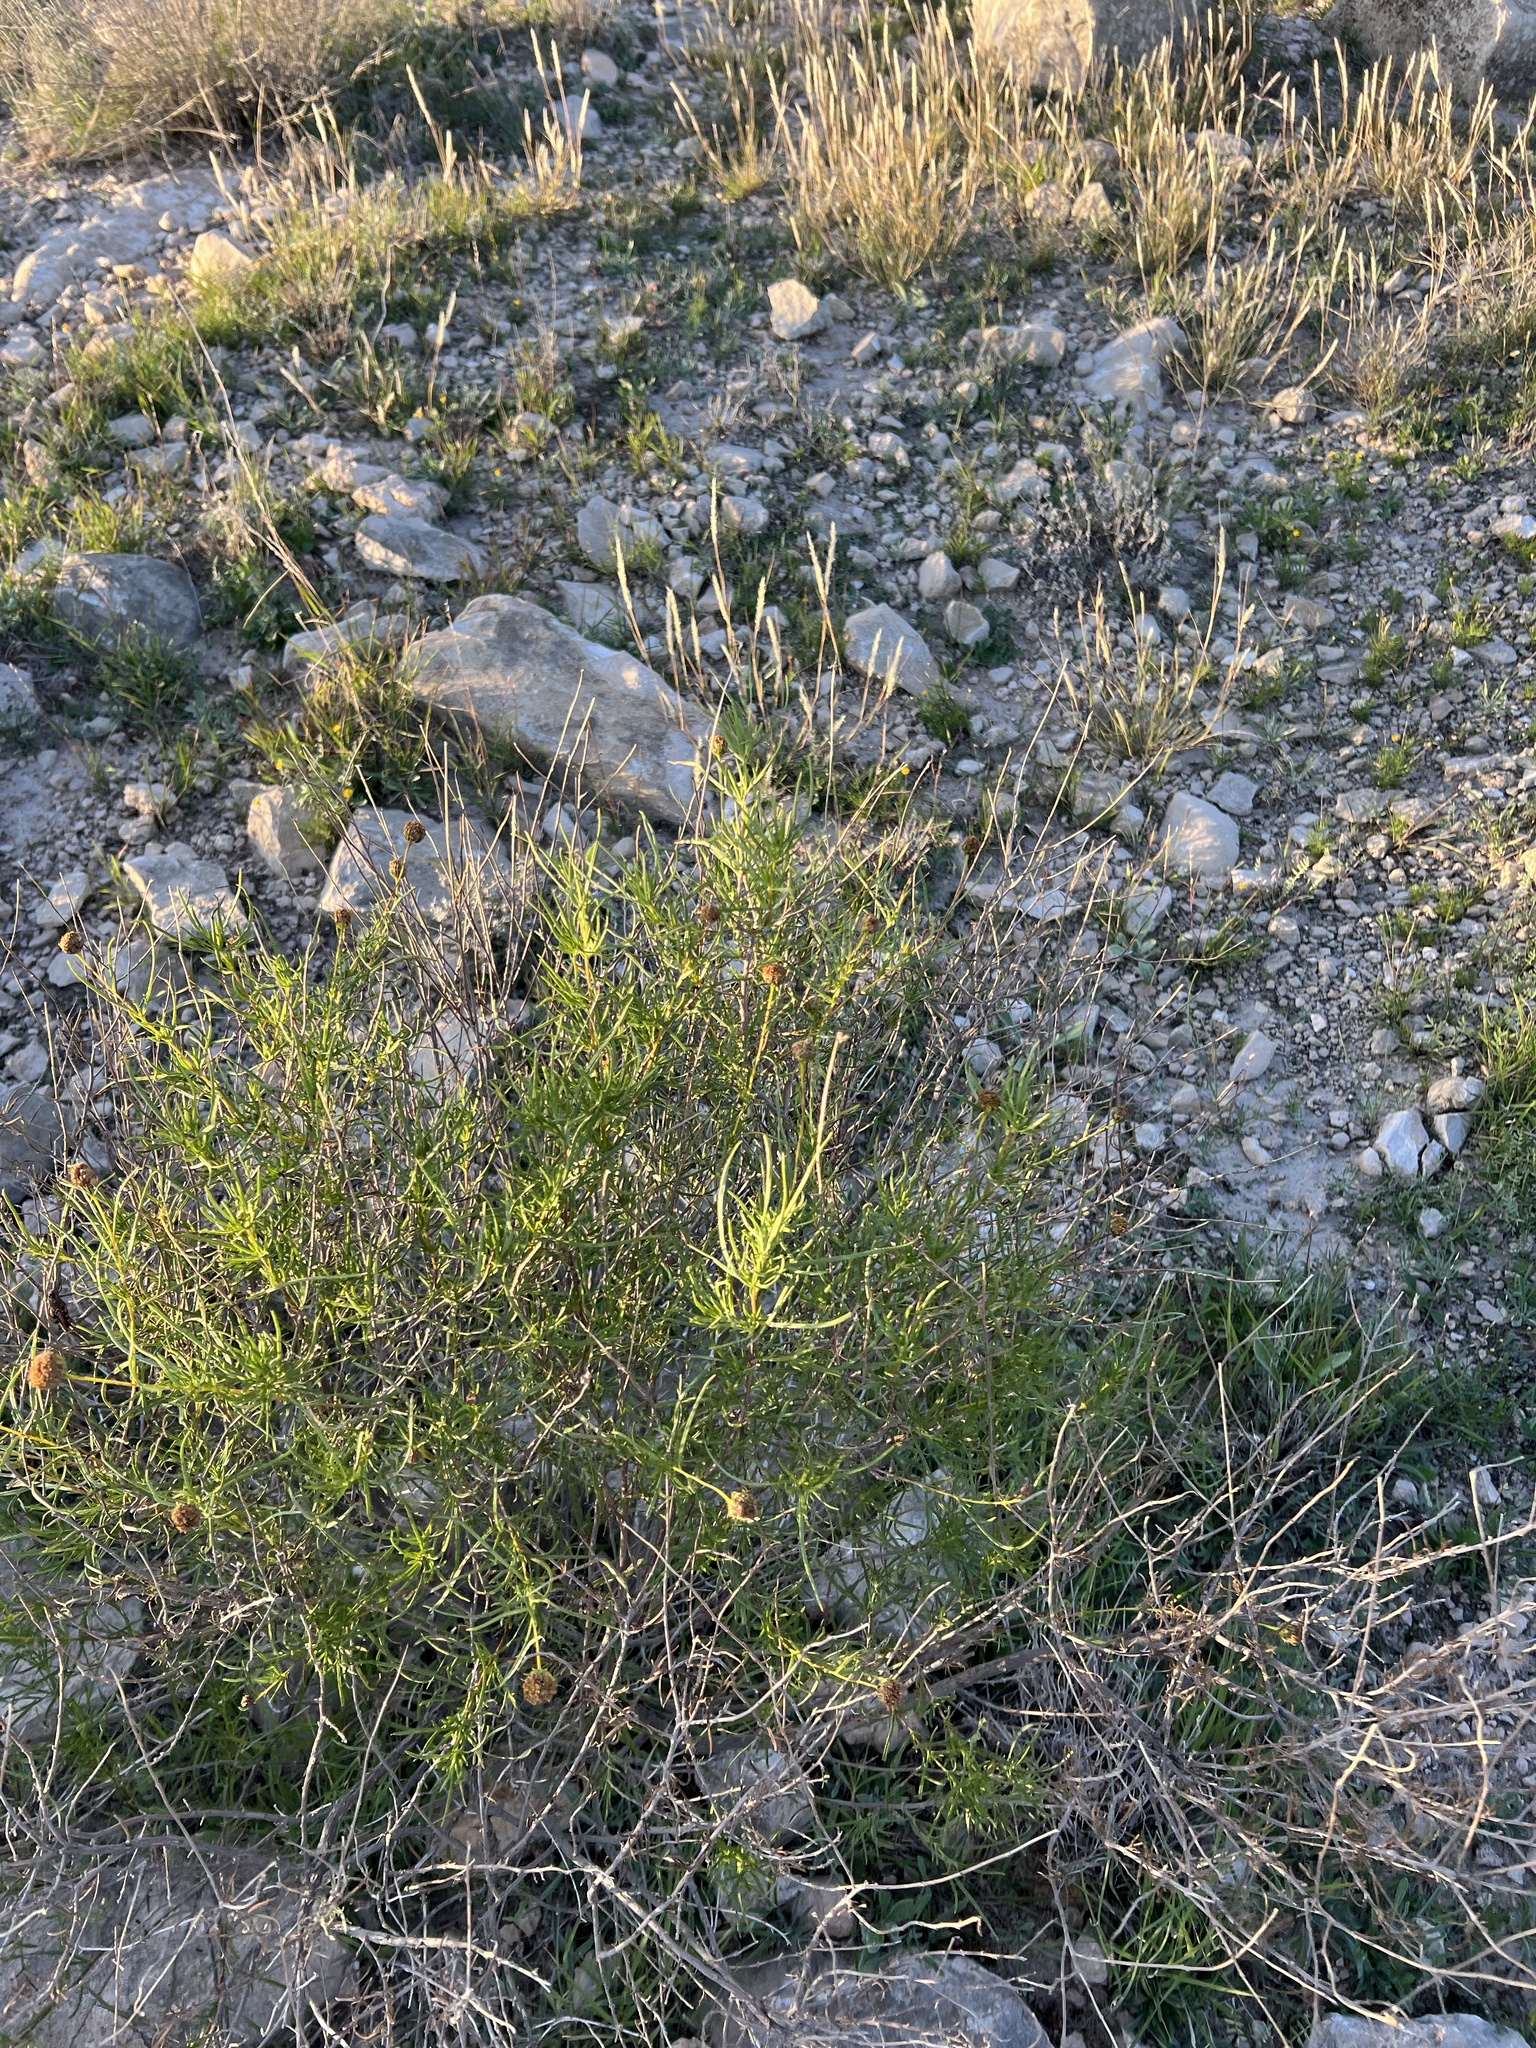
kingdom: Plantae
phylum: Tracheophyta
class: Magnoliopsida
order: Asterales
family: Asteraceae
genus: Sidneya
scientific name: Sidneya tenuifolia
